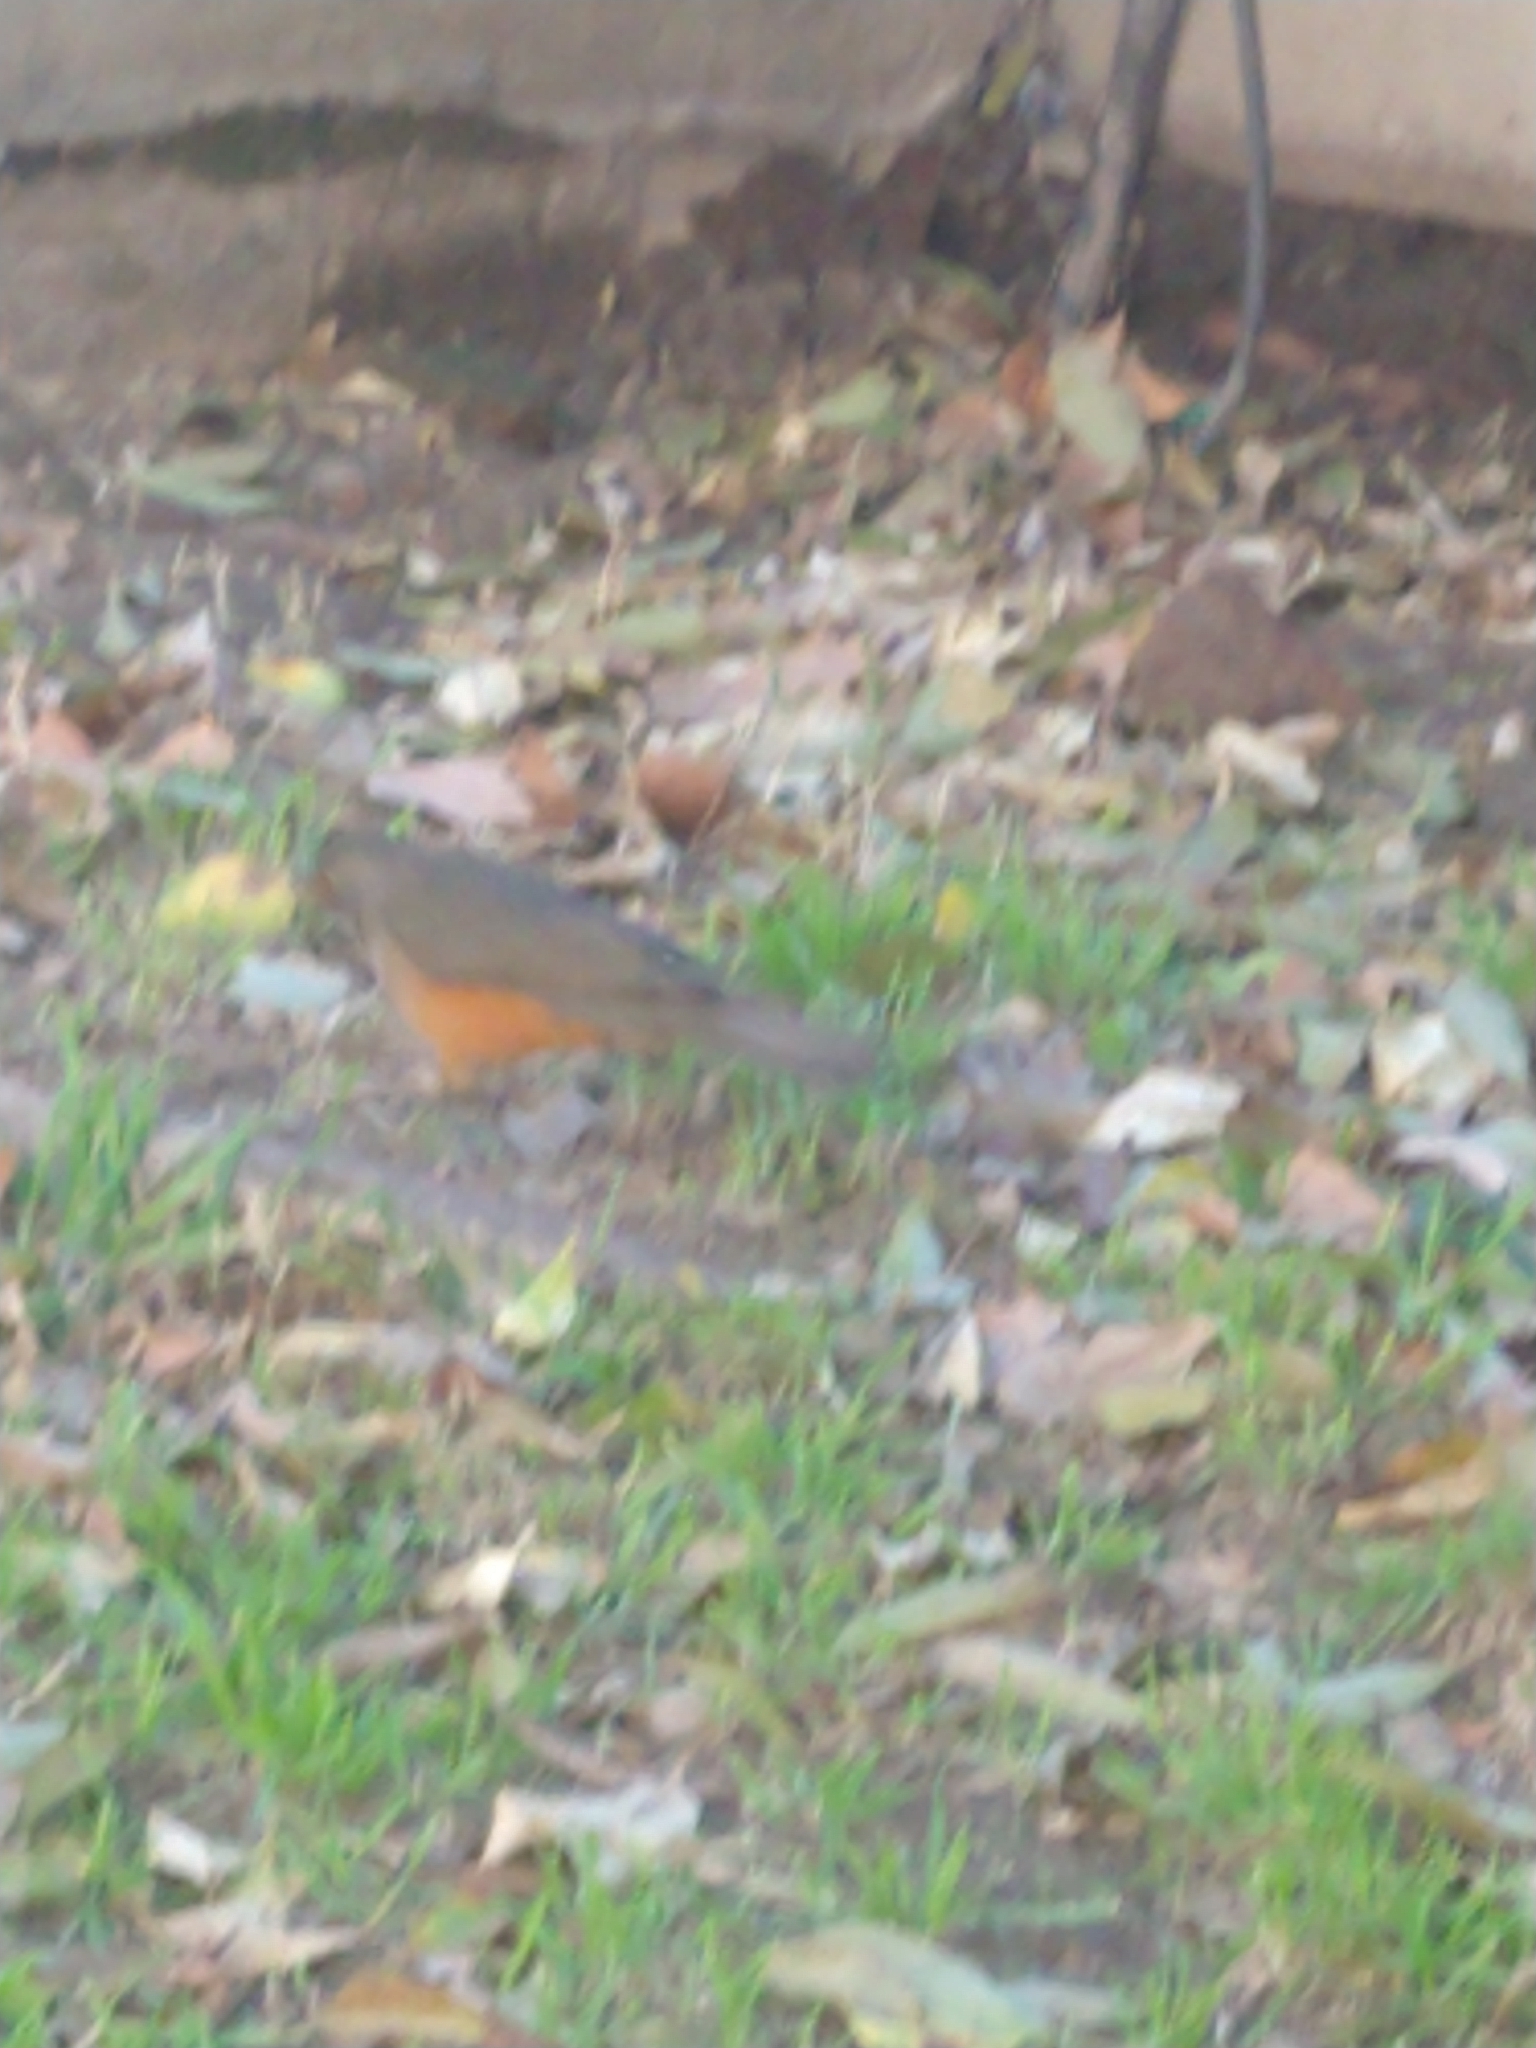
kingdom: Animalia
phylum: Chordata
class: Aves
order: Passeriformes
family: Turdidae
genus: Turdus
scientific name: Turdus rufiventris
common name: Rufous-bellied thrush
